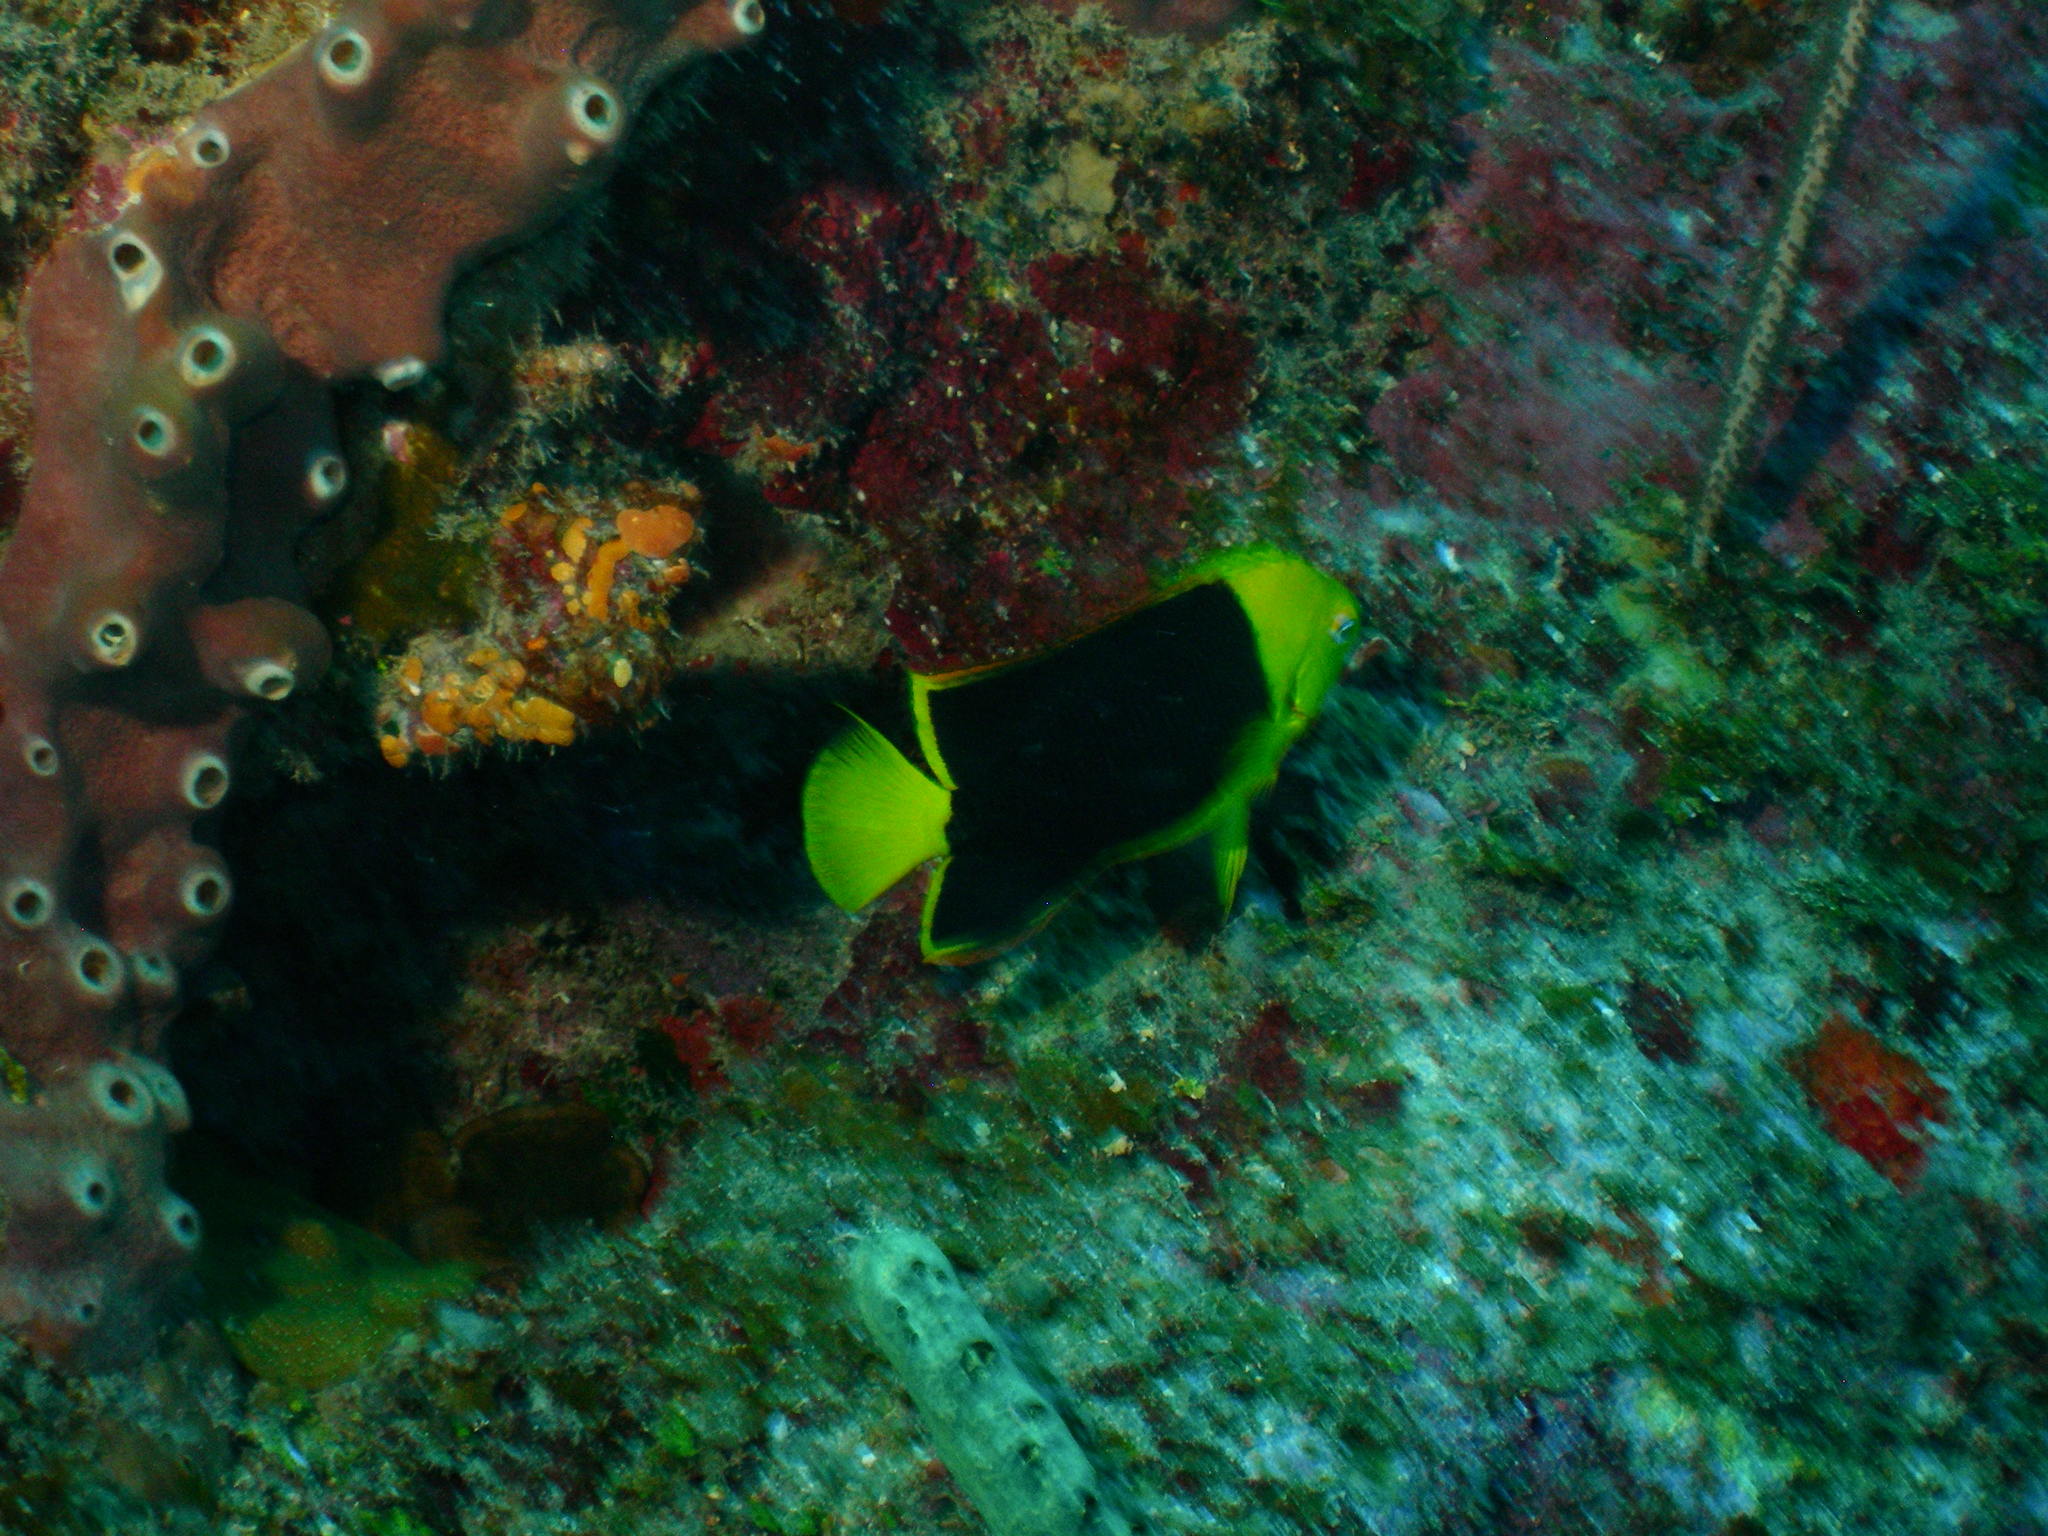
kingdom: Animalia
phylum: Chordata
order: Perciformes
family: Pomacanthidae
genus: Holacanthus
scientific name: Holacanthus tricolor
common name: Rock beauty
